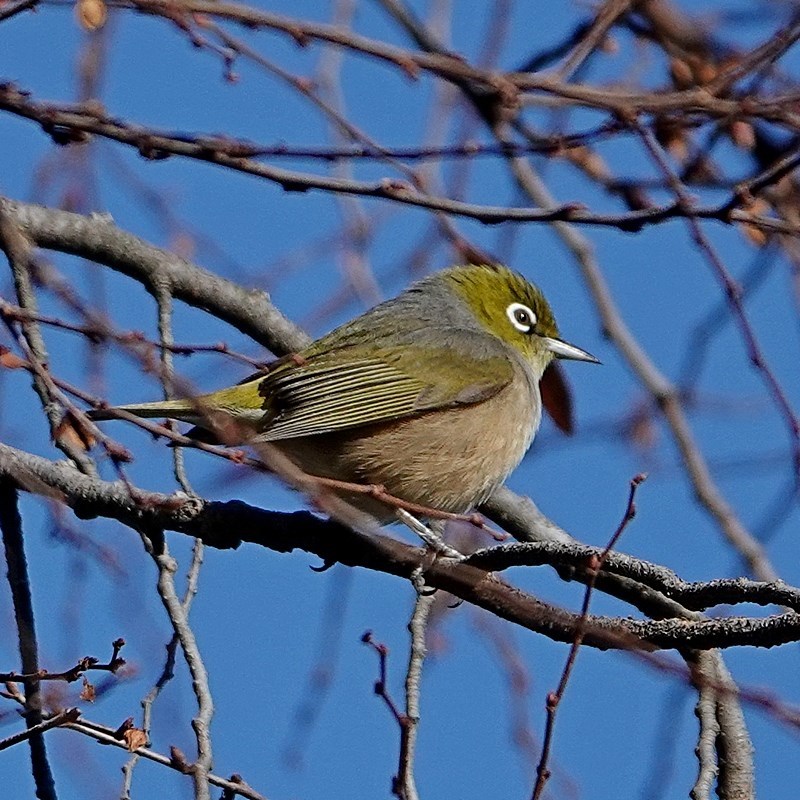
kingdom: Animalia
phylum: Chordata
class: Aves
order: Passeriformes
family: Zosteropidae
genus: Zosterops
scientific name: Zosterops lateralis
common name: Silvereye
